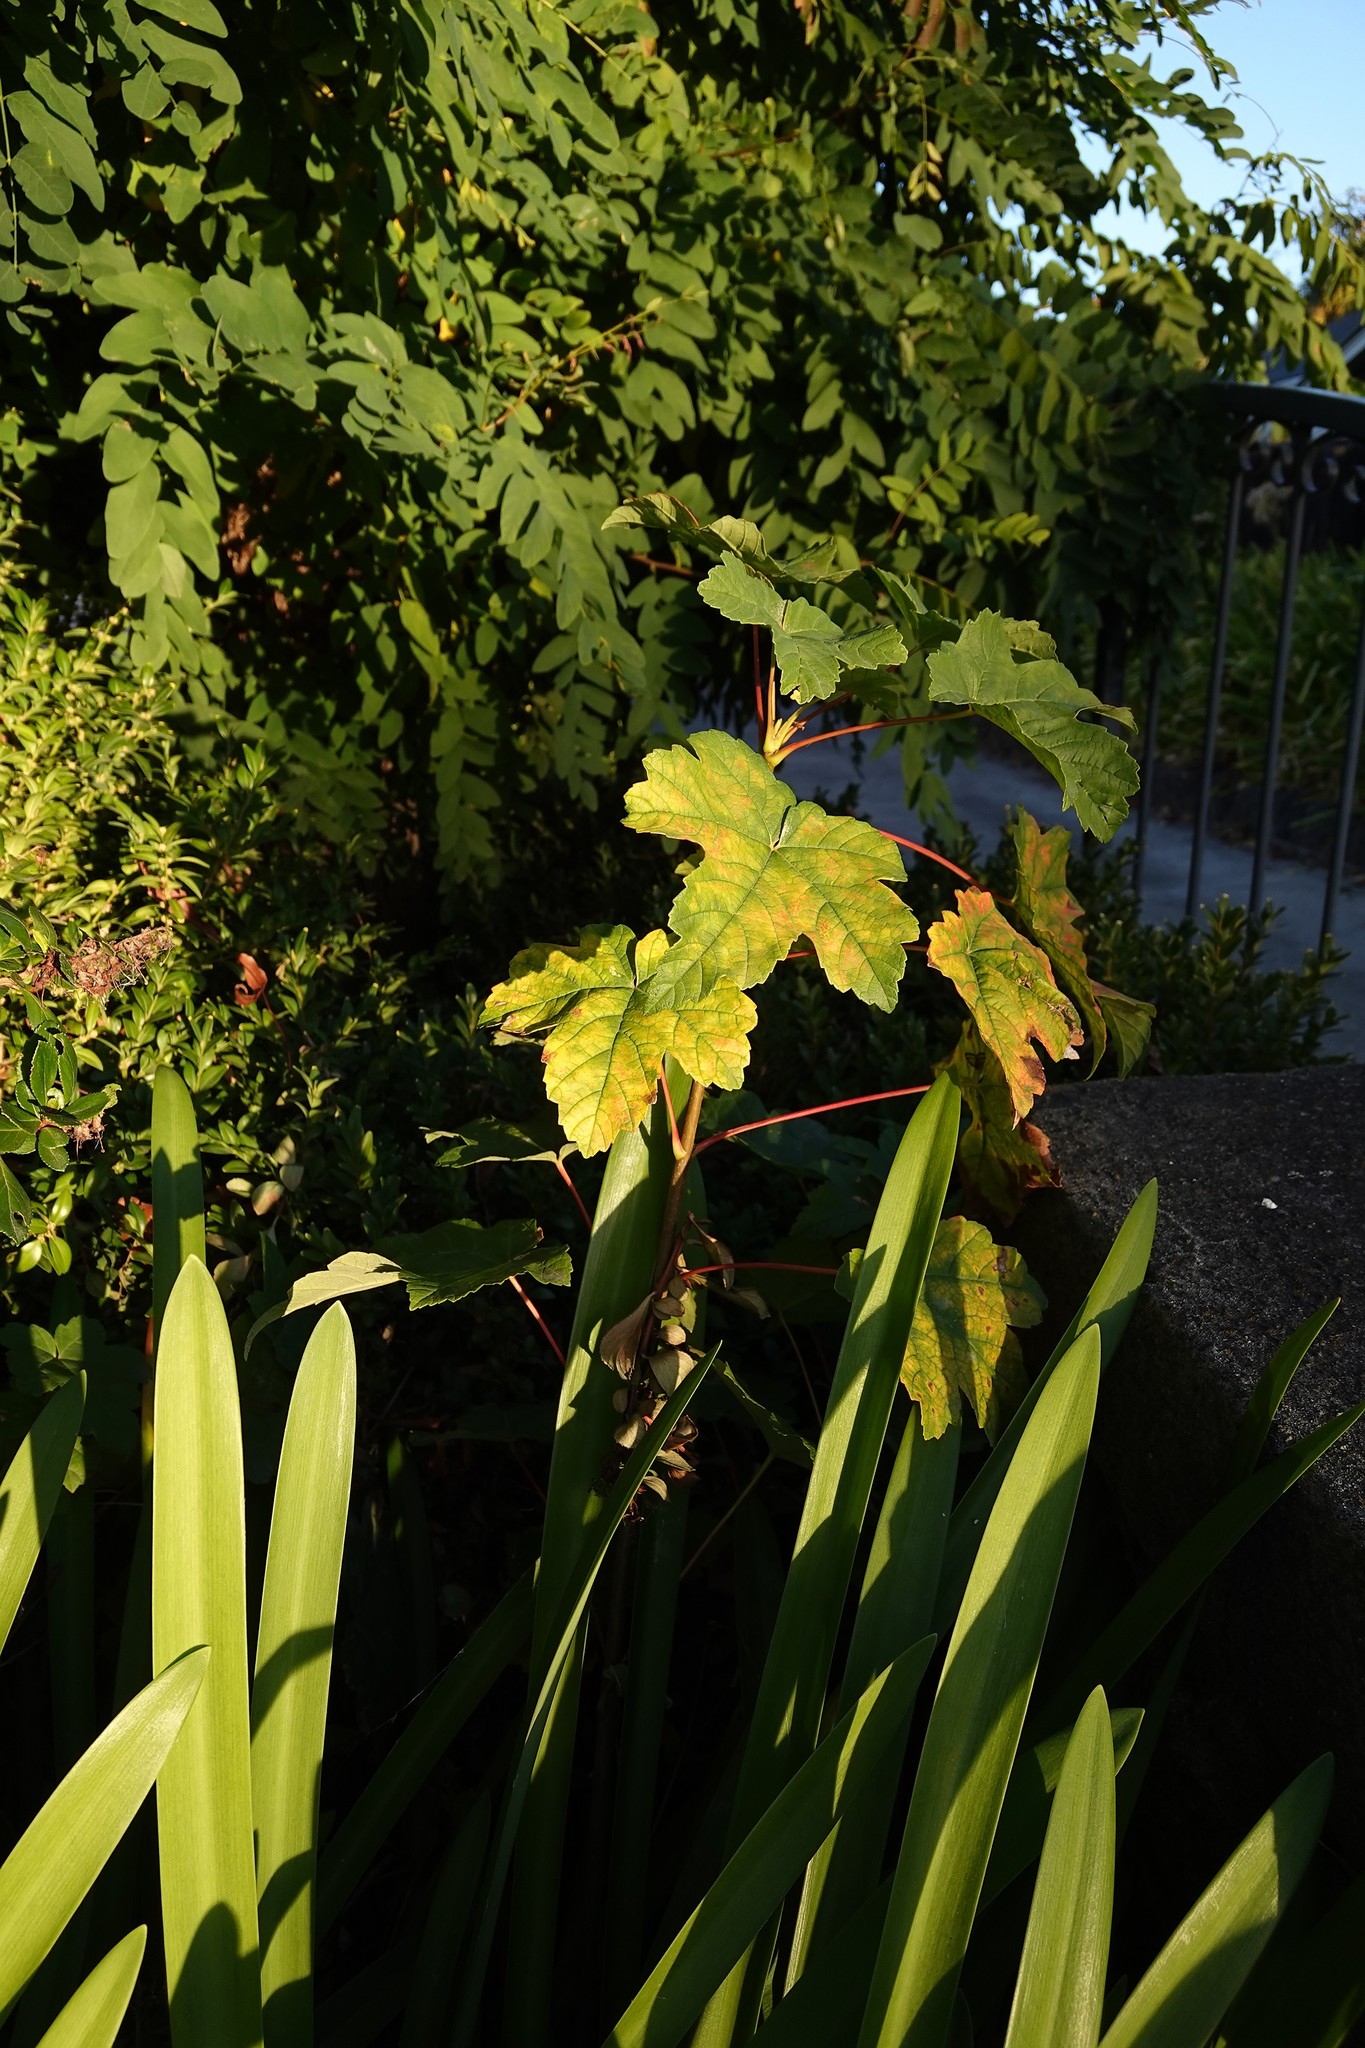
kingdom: Plantae
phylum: Tracheophyta
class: Magnoliopsida
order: Sapindales
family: Sapindaceae
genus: Acer
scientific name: Acer pseudoplatanus
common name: Sycamore
